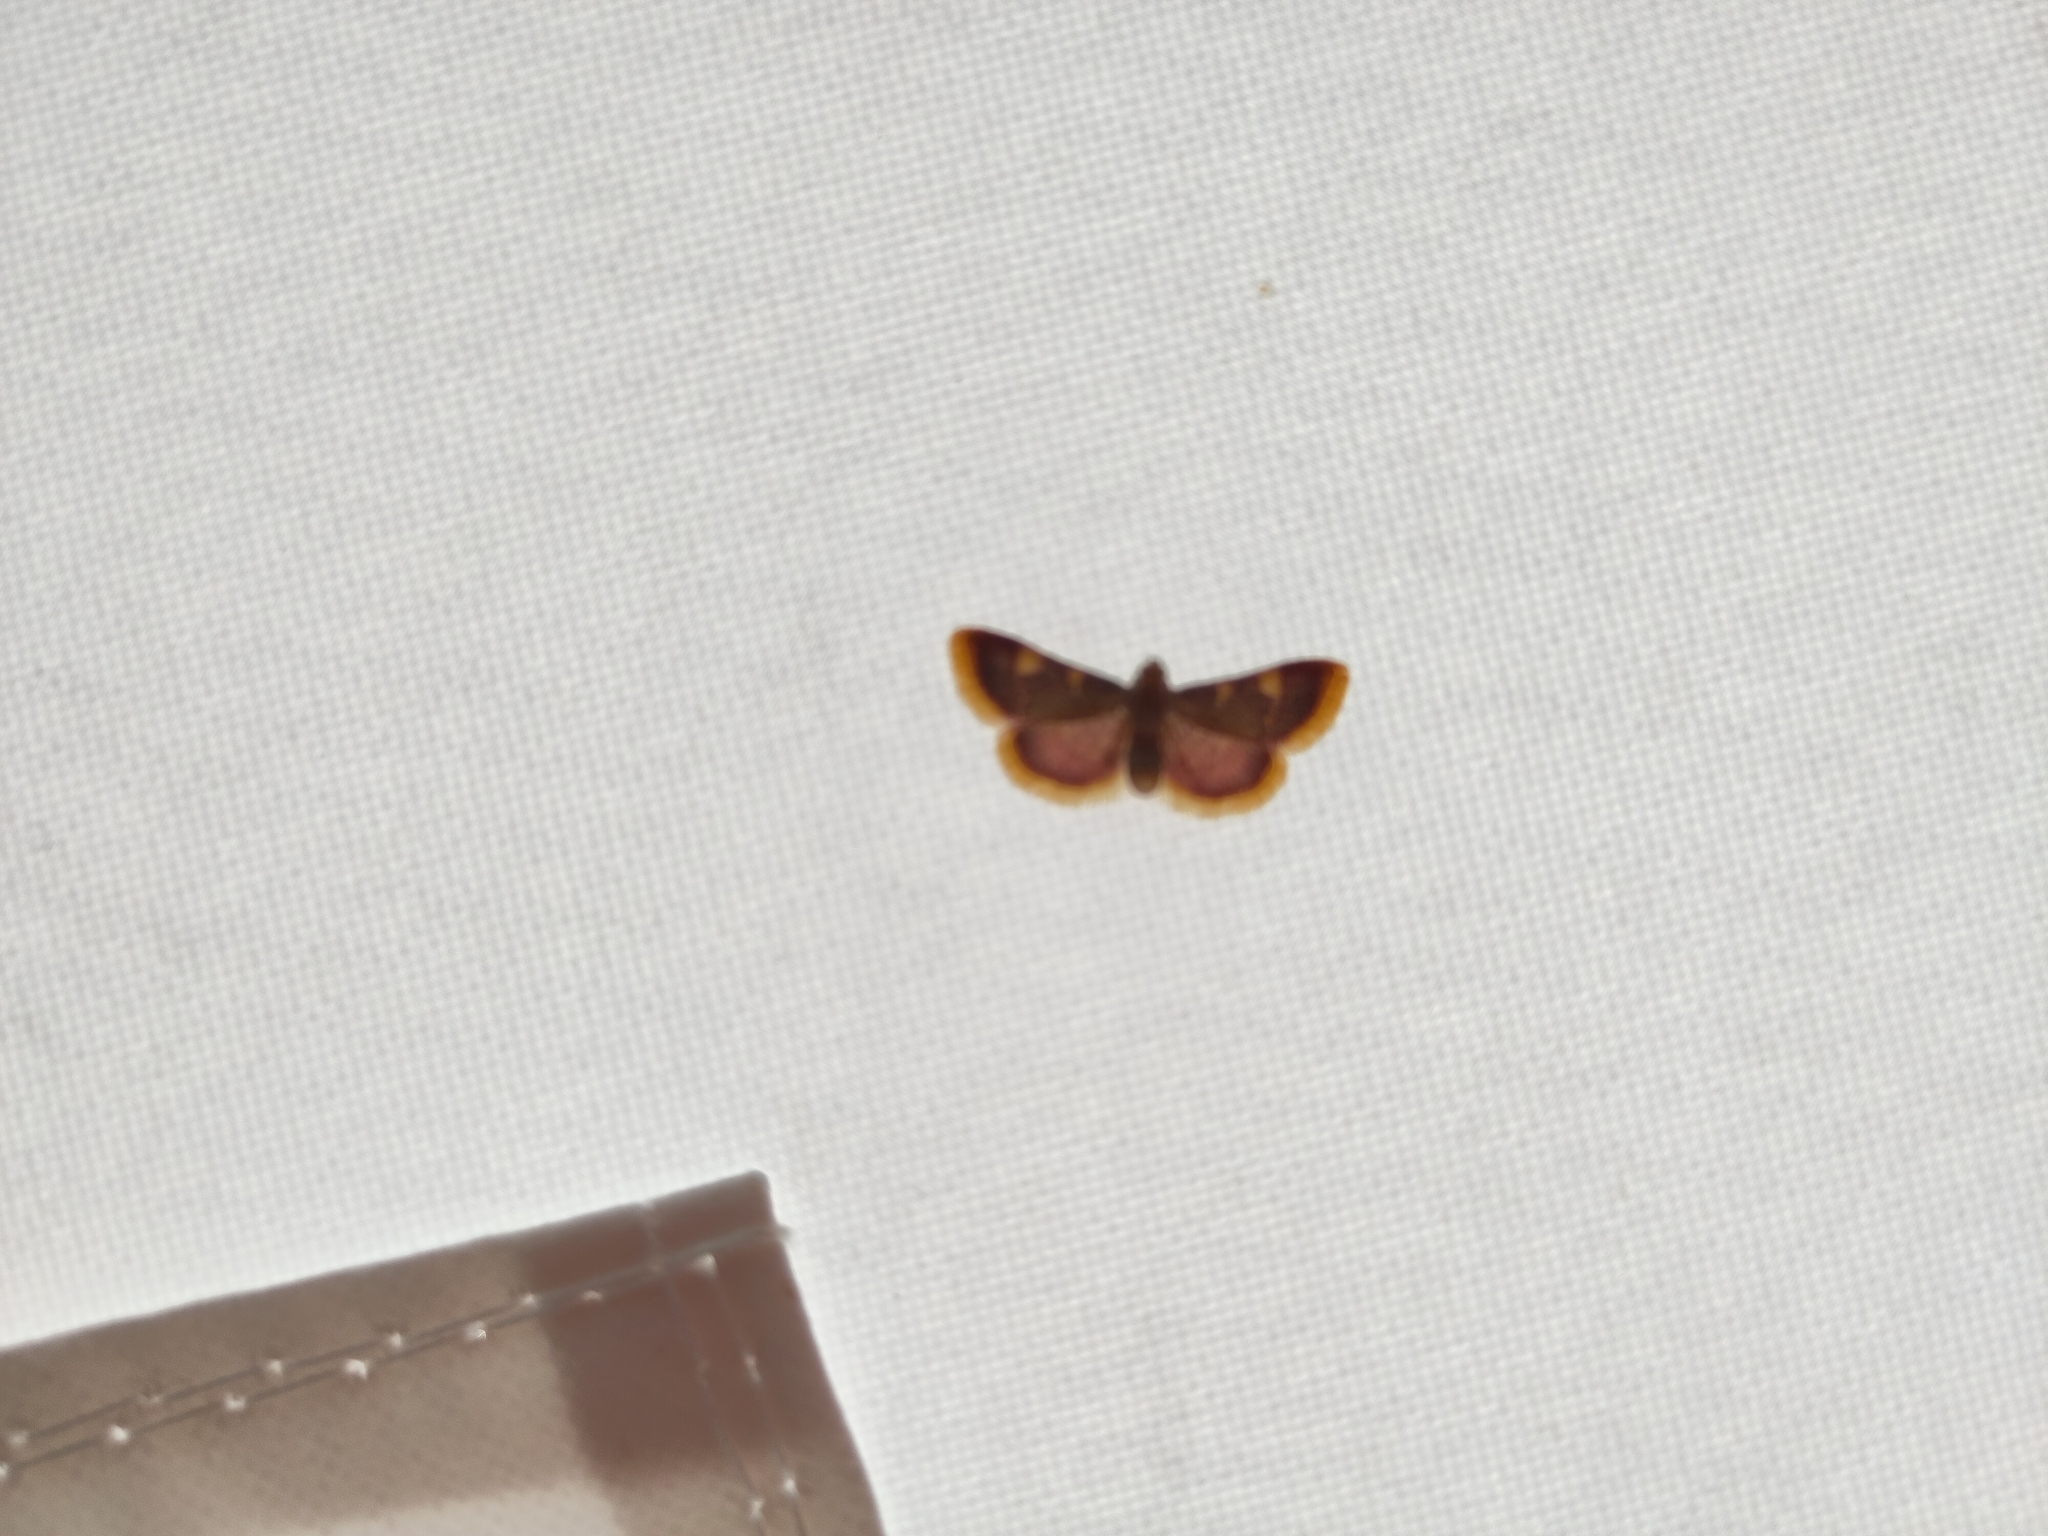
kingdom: Animalia
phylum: Arthropoda
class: Insecta
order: Lepidoptera
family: Pyralidae
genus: Hypsopygia
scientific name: Hypsopygia costalis
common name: Gold triangle
